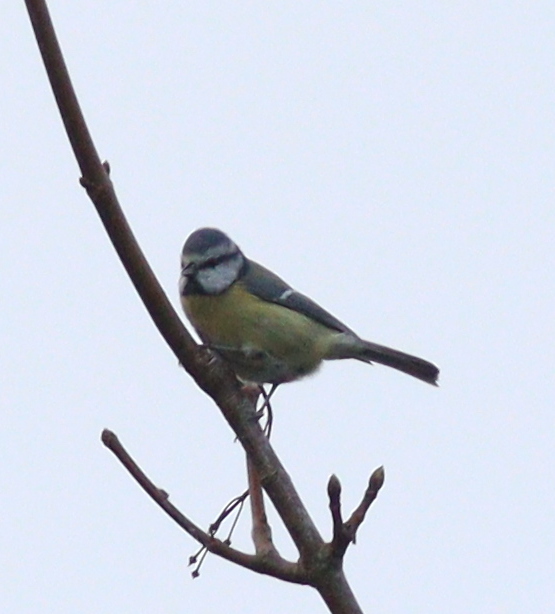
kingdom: Animalia
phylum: Chordata
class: Aves
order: Passeriformes
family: Paridae
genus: Cyanistes
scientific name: Cyanistes caeruleus
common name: Eurasian blue tit
